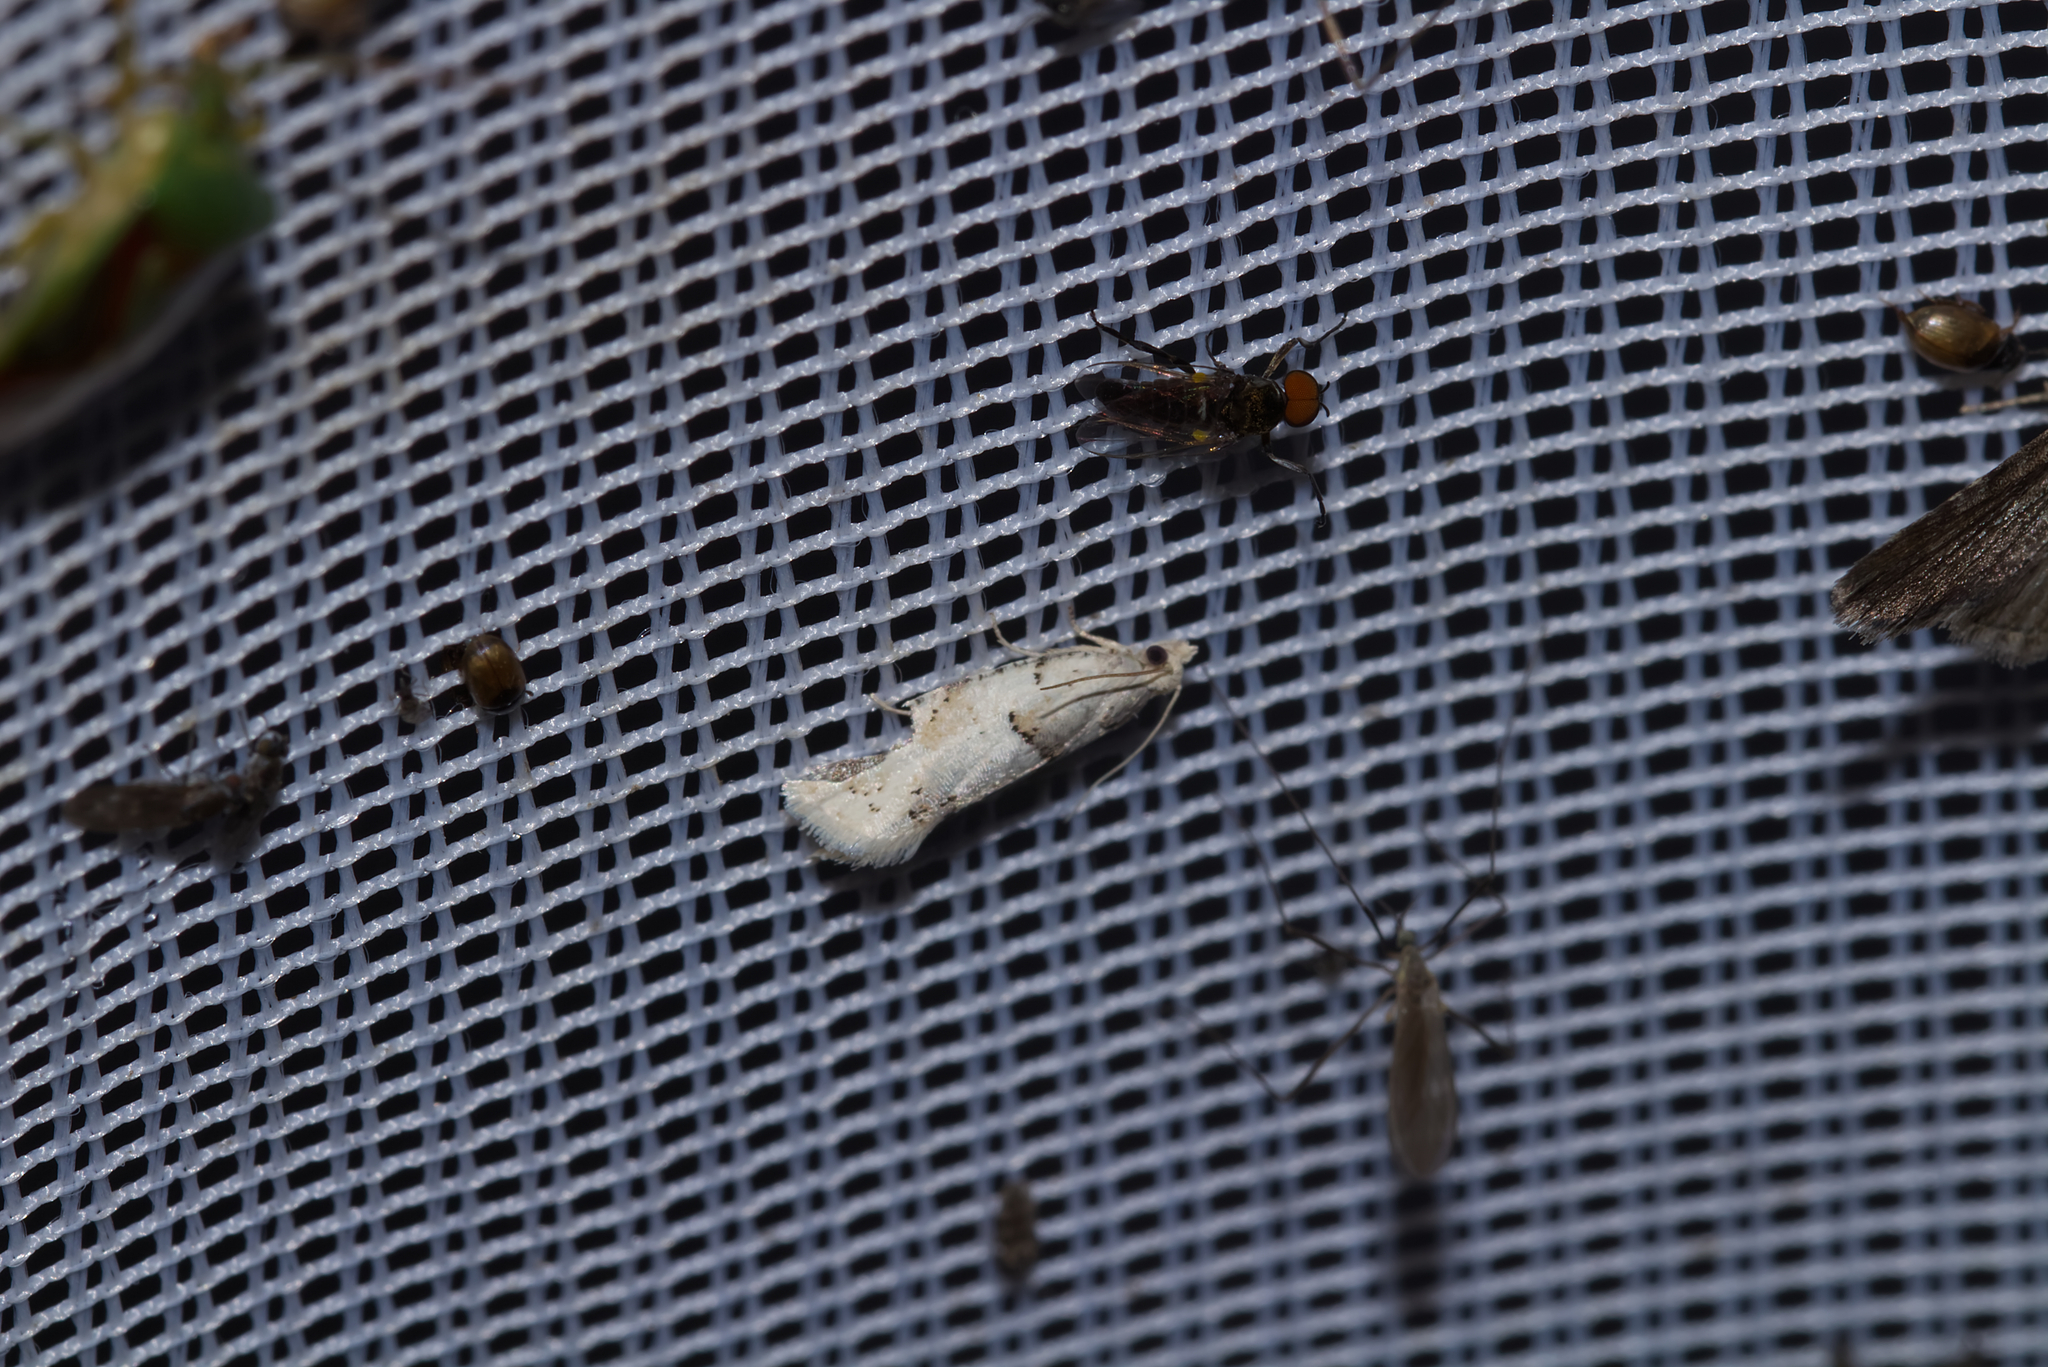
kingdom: Animalia
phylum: Arthropoda
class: Insecta
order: Lepidoptera
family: Tortricidae
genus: Epinotia
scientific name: Epinotia bilunana
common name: Crescent bell
